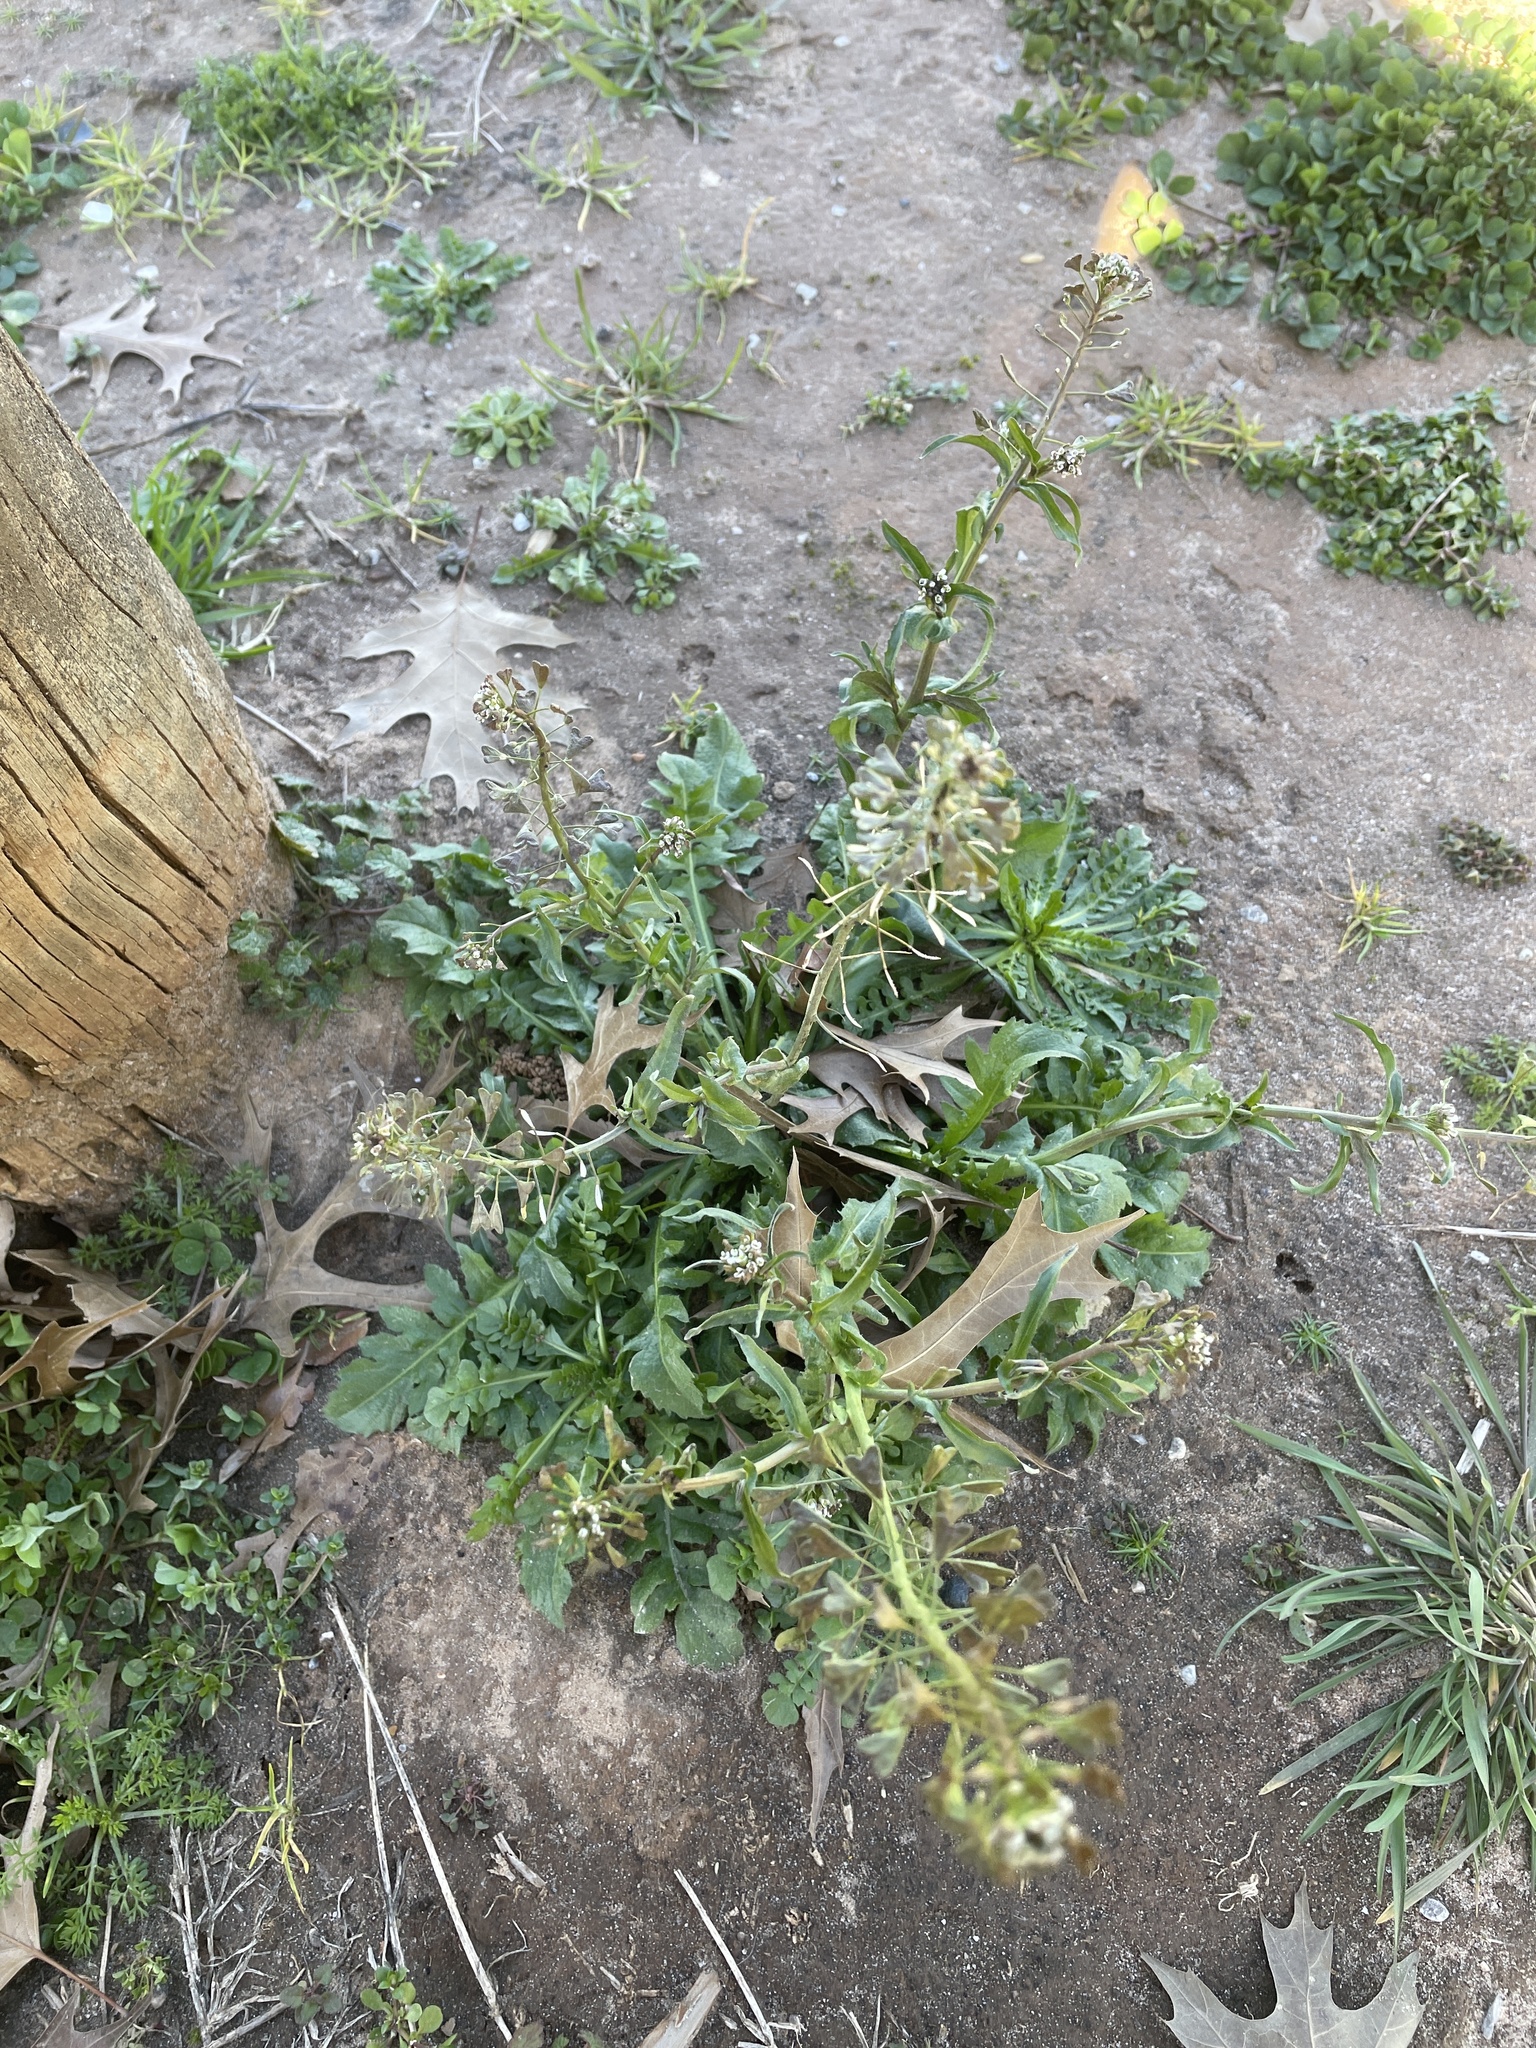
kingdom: Plantae
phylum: Tracheophyta
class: Magnoliopsida
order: Brassicales
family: Brassicaceae
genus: Capsella
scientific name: Capsella bursa-pastoris
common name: Shepherd's purse
